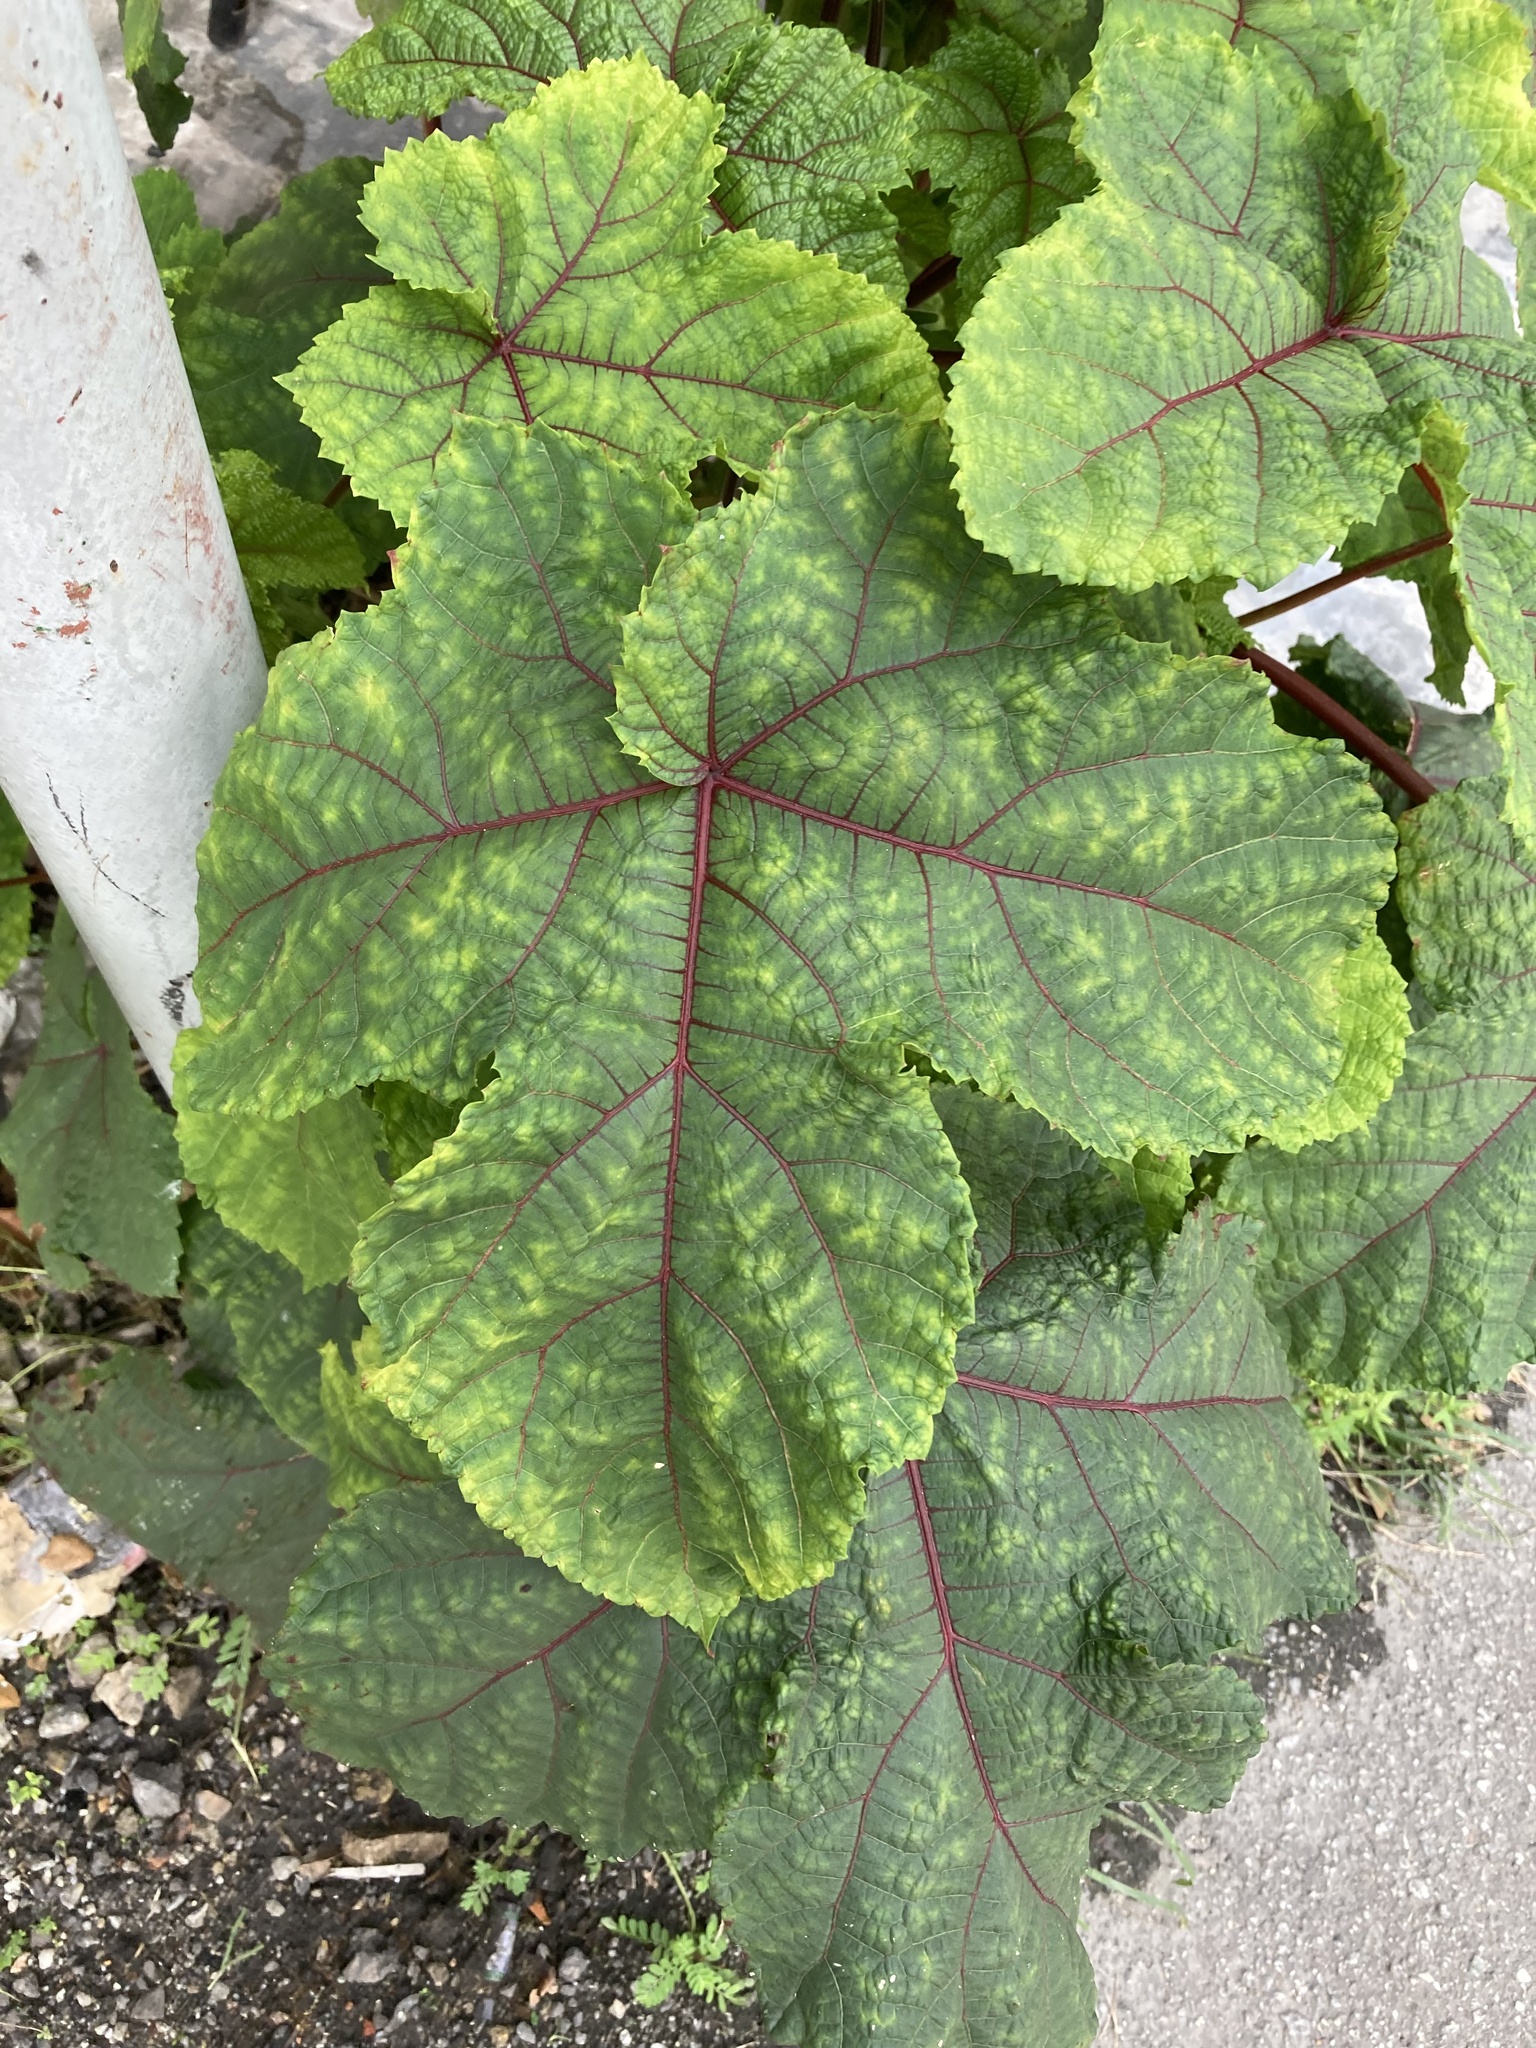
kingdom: Plantae
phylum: Tracheophyta
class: Magnoliopsida
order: Malvales
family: Malvaceae
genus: Abelmoschus
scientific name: Abelmoschus esculentus
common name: Okra
